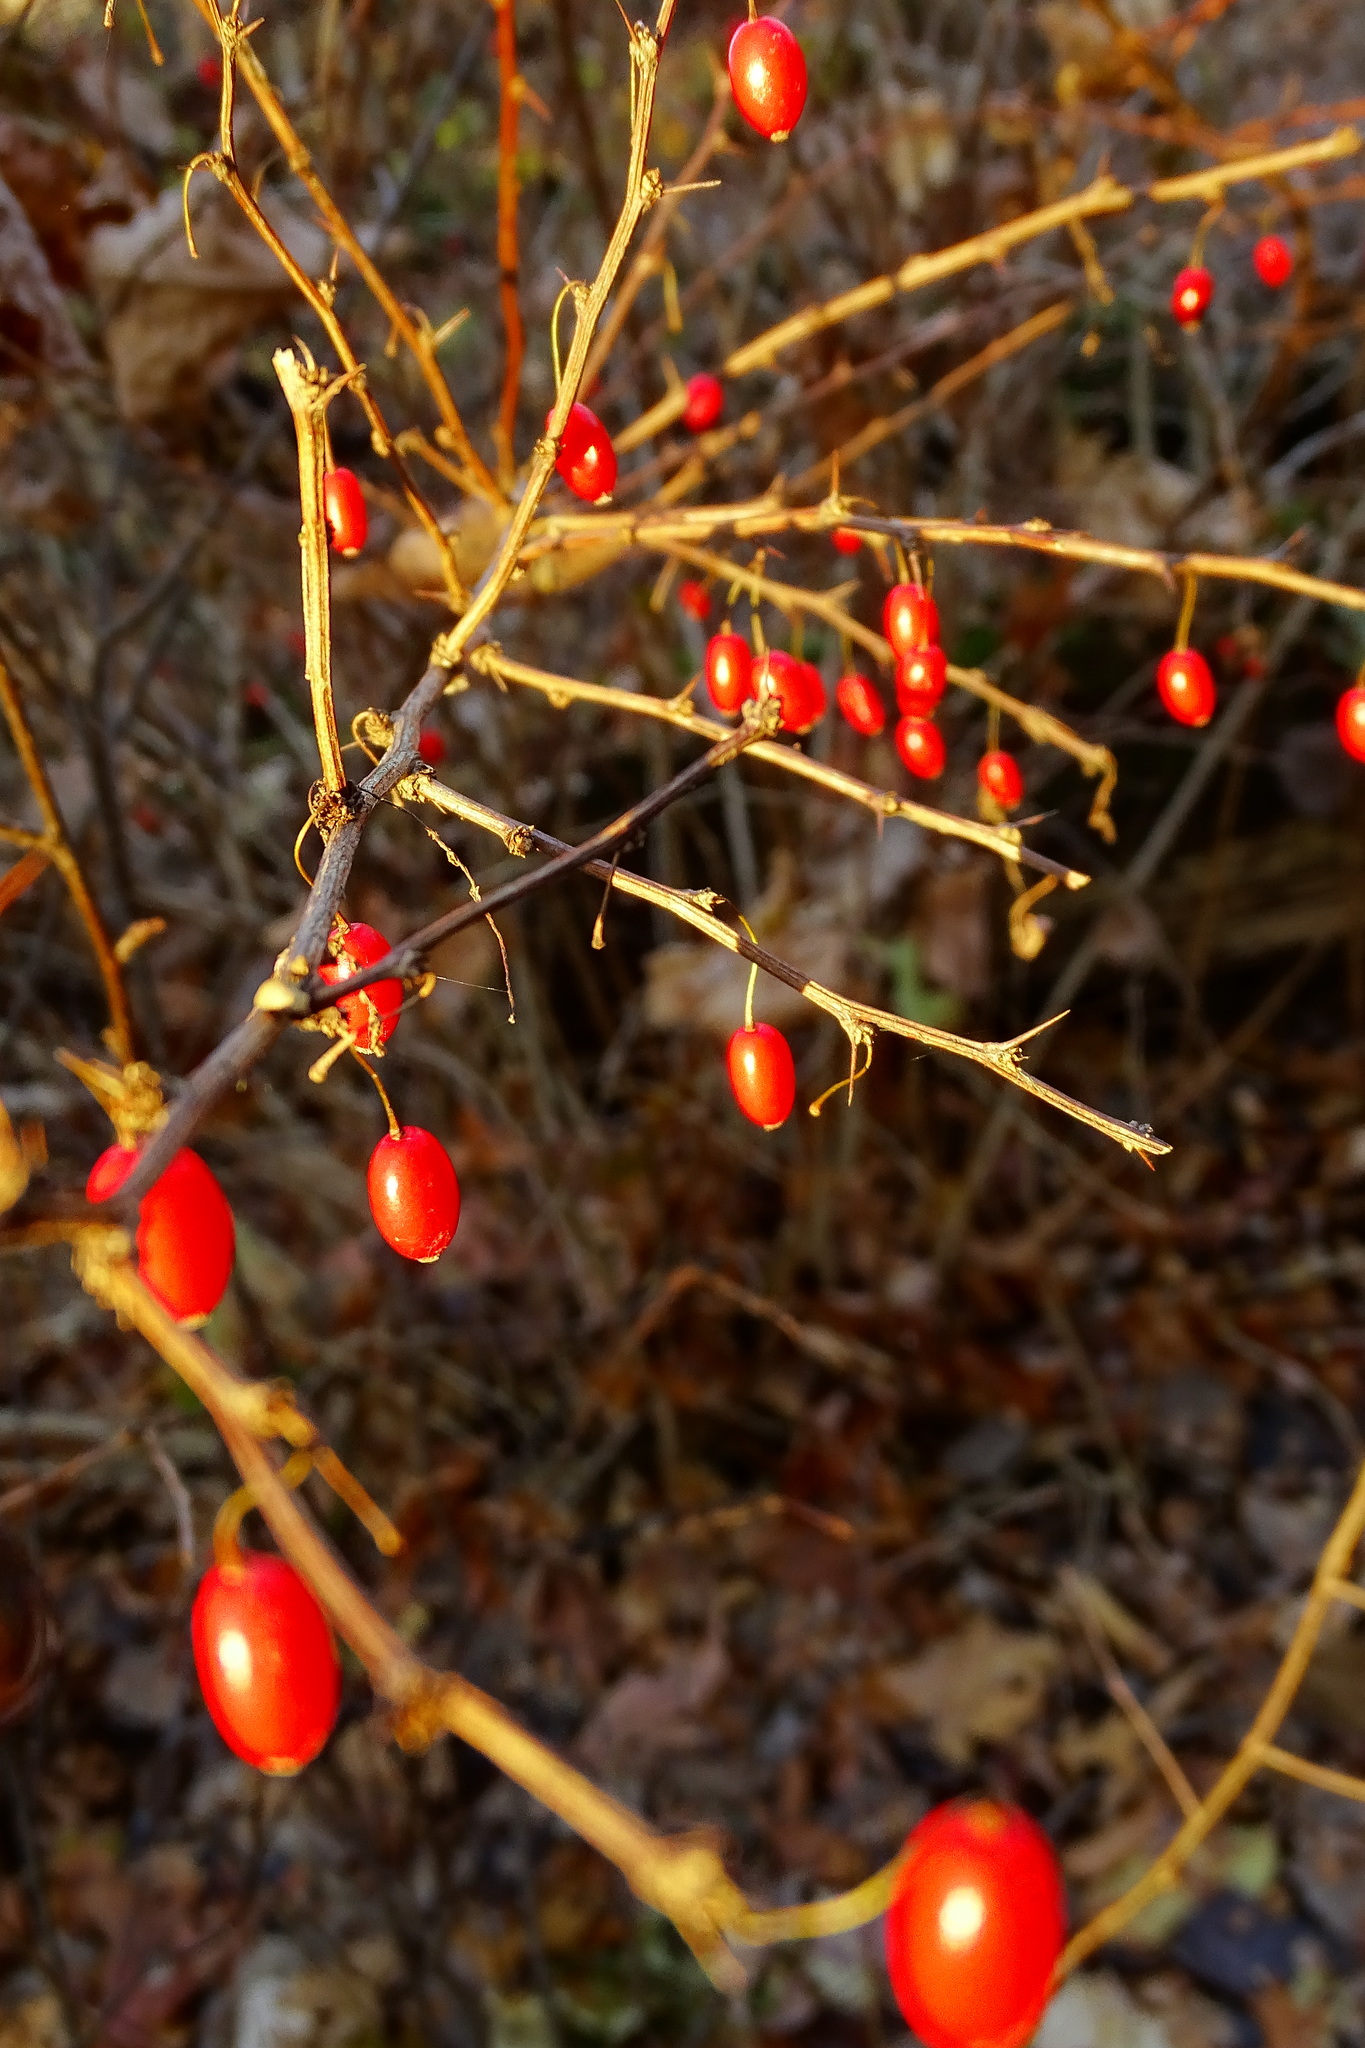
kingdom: Plantae
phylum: Tracheophyta
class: Magnoliopsida
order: Ranunculales
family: Berberidaceae
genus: Berberis
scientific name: Berberis thunbergii
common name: Japanese barberry
